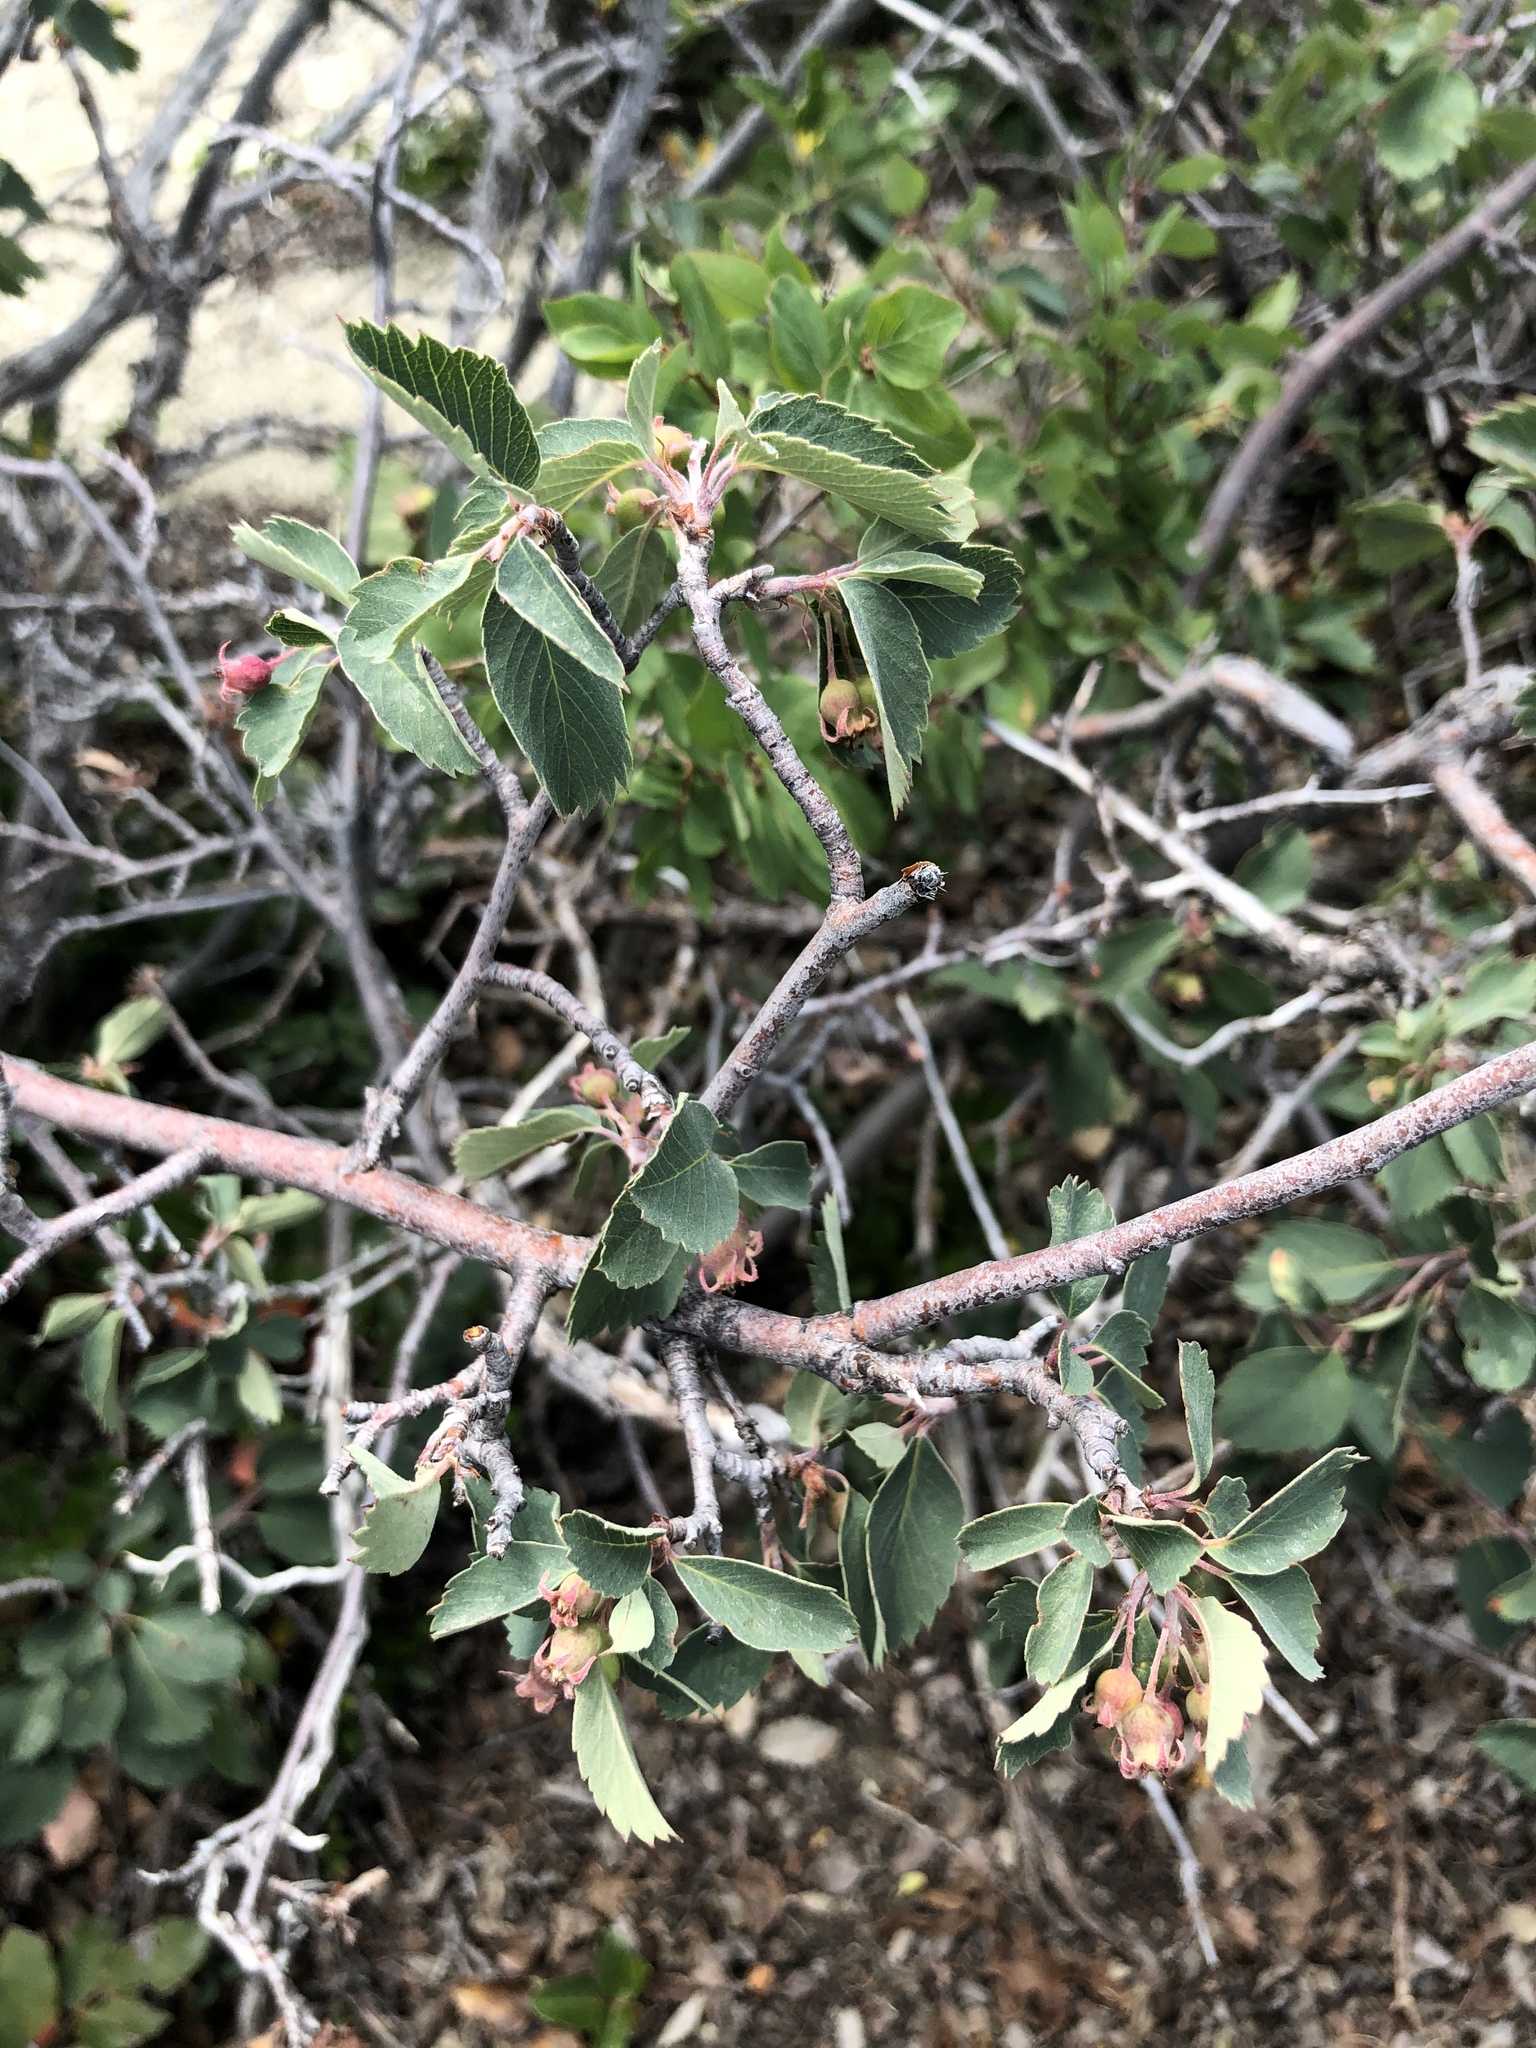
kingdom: Plantae
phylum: Tracheophyta
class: Magnoliopsida
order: Rosales
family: Rosaceae
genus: Amelanchier
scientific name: Amelanchier utahensis
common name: Utah serviceberry
